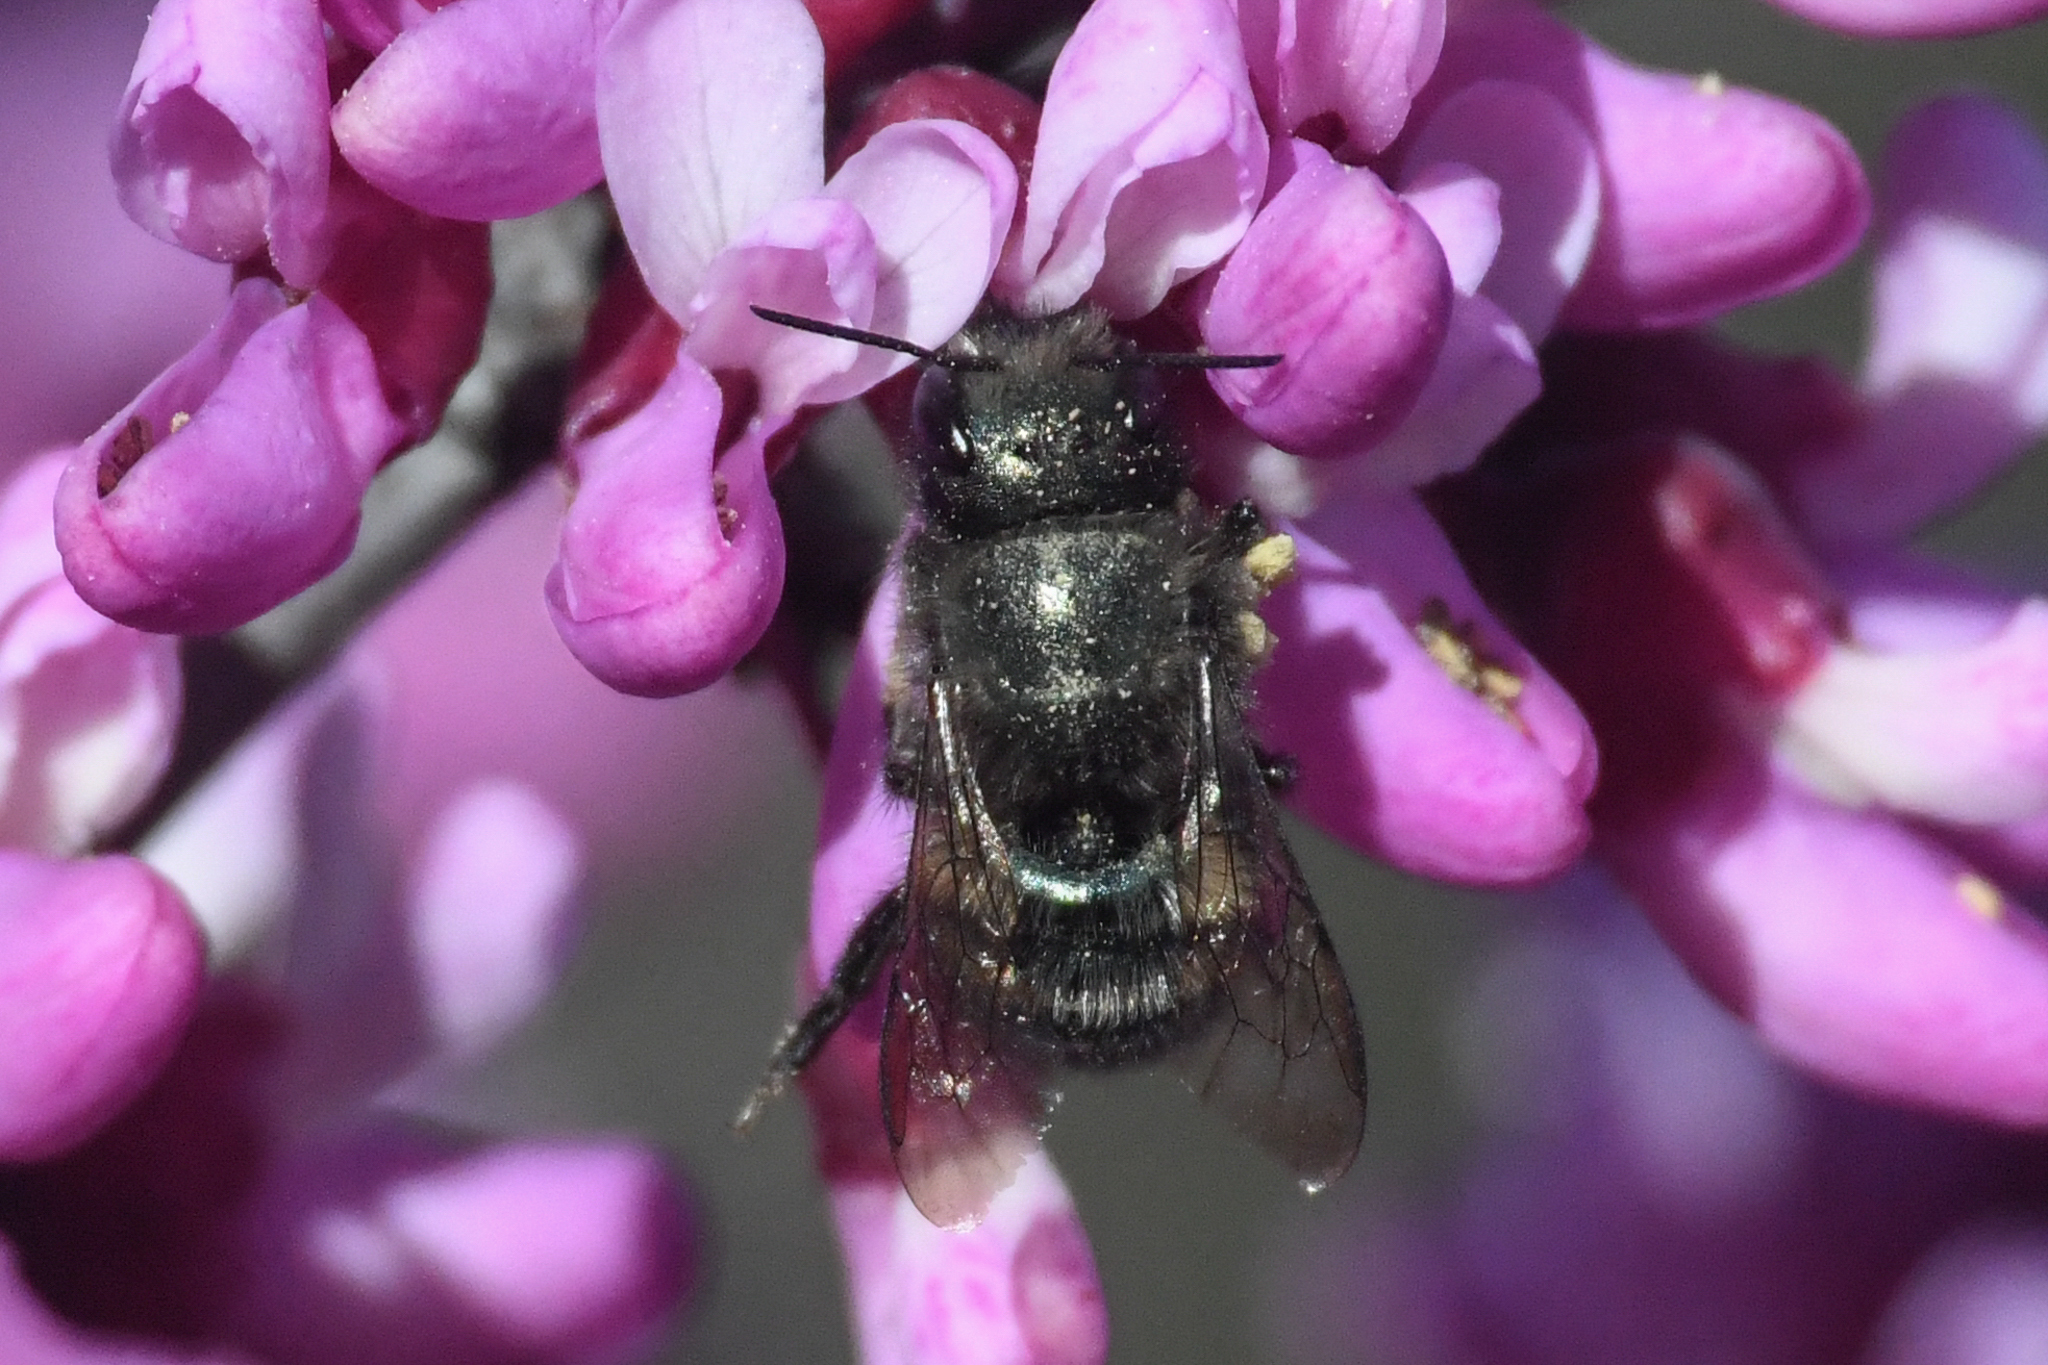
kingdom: Animalia
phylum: Arthropoda
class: Insecta
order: Hymenoptera
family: Megachilidae
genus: Osmia
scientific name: Osmia lignaria
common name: Blue orchard bee
